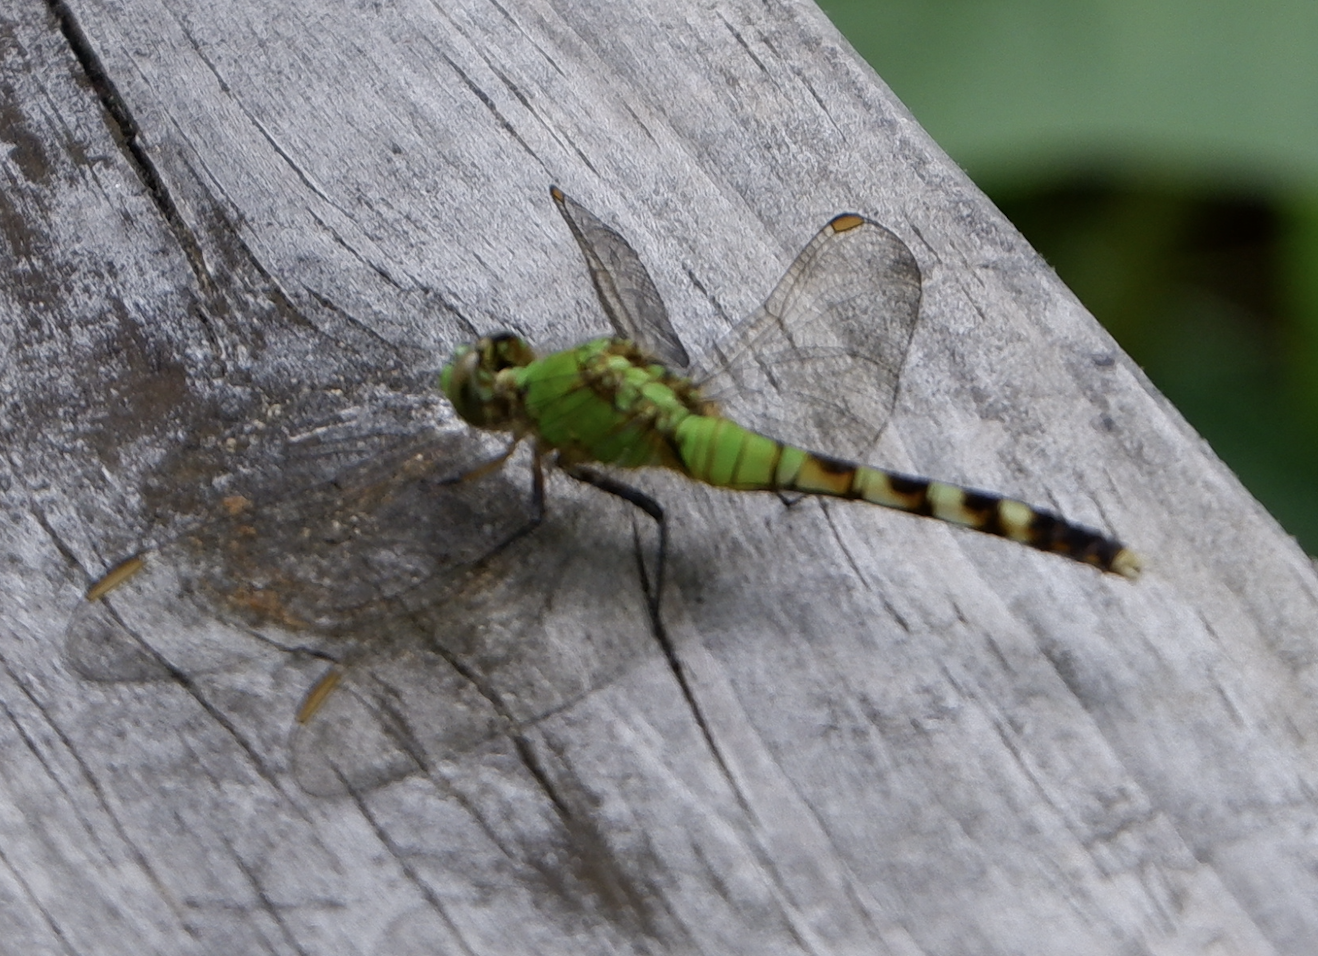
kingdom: Animalia
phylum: Arthropoda
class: Insecta
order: Odonata
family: Libellulidae
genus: Erythemis
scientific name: Erythemis simplicicollis
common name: Eastern pondhawk
